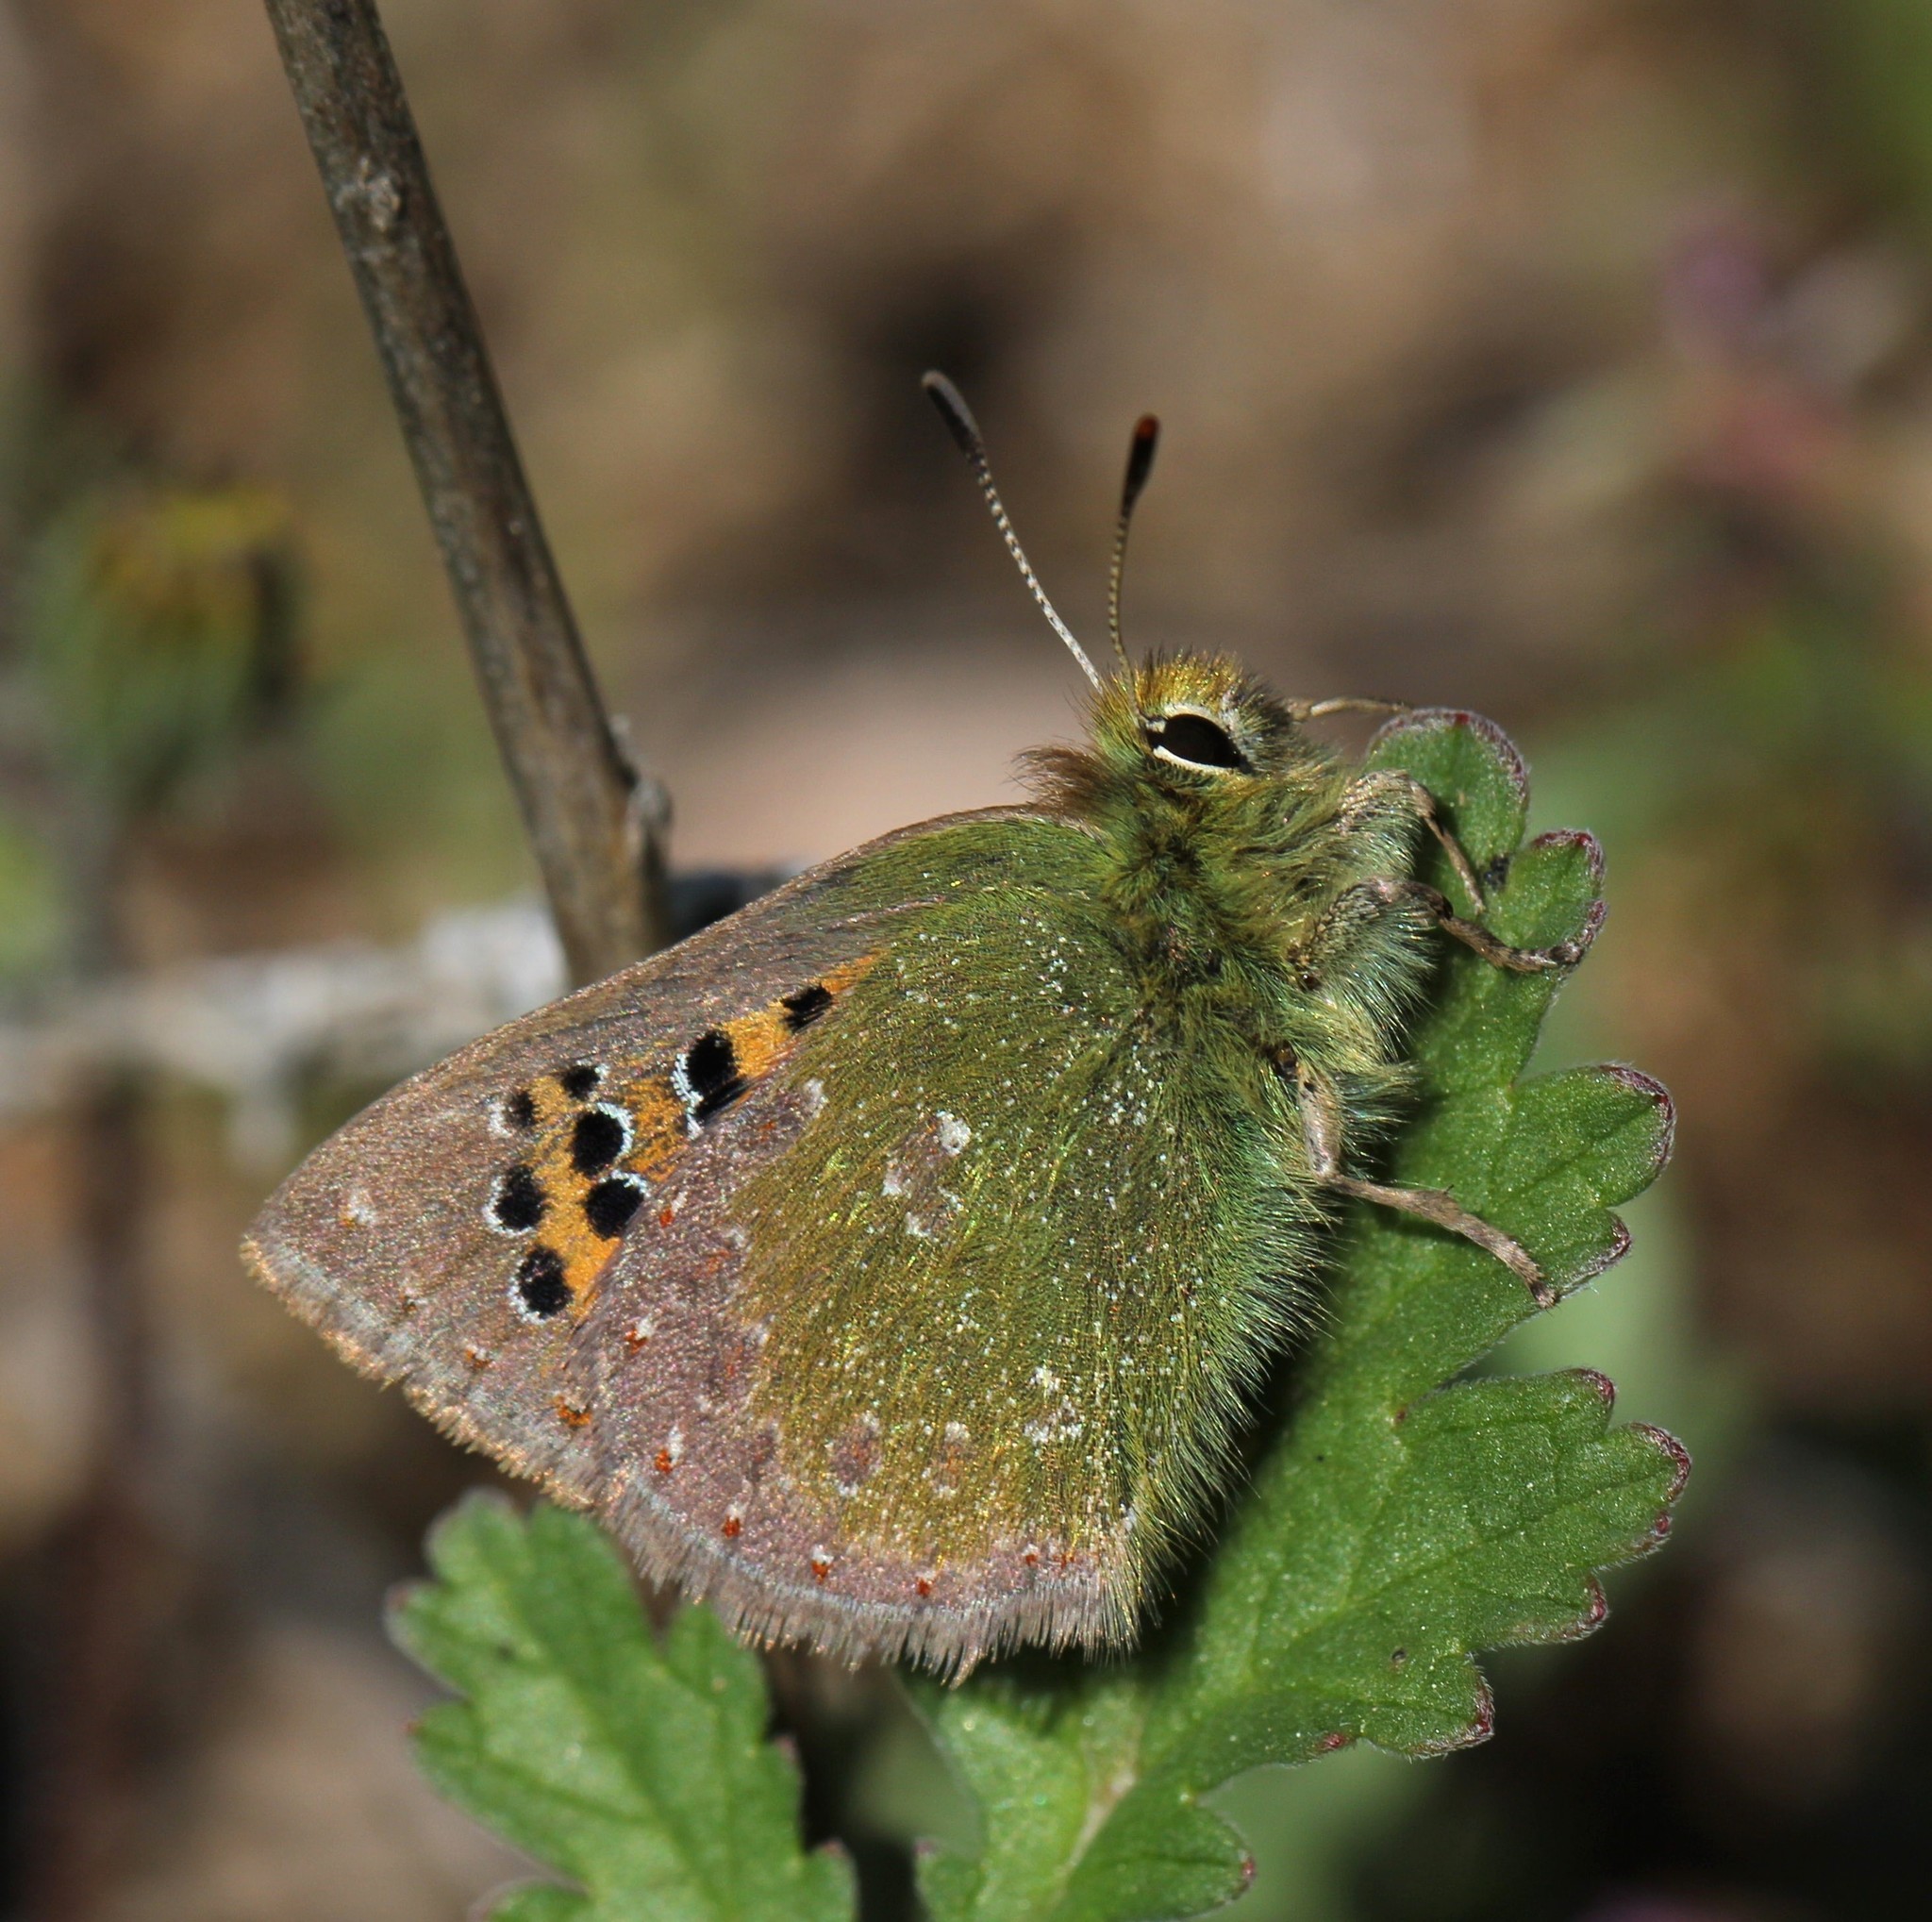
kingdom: Animalia
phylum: Arthropoda
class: Insecta
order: Lepidoptera
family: Lycaenidae
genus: Tomares
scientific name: Tomares ballus
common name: Provence hairstreak
